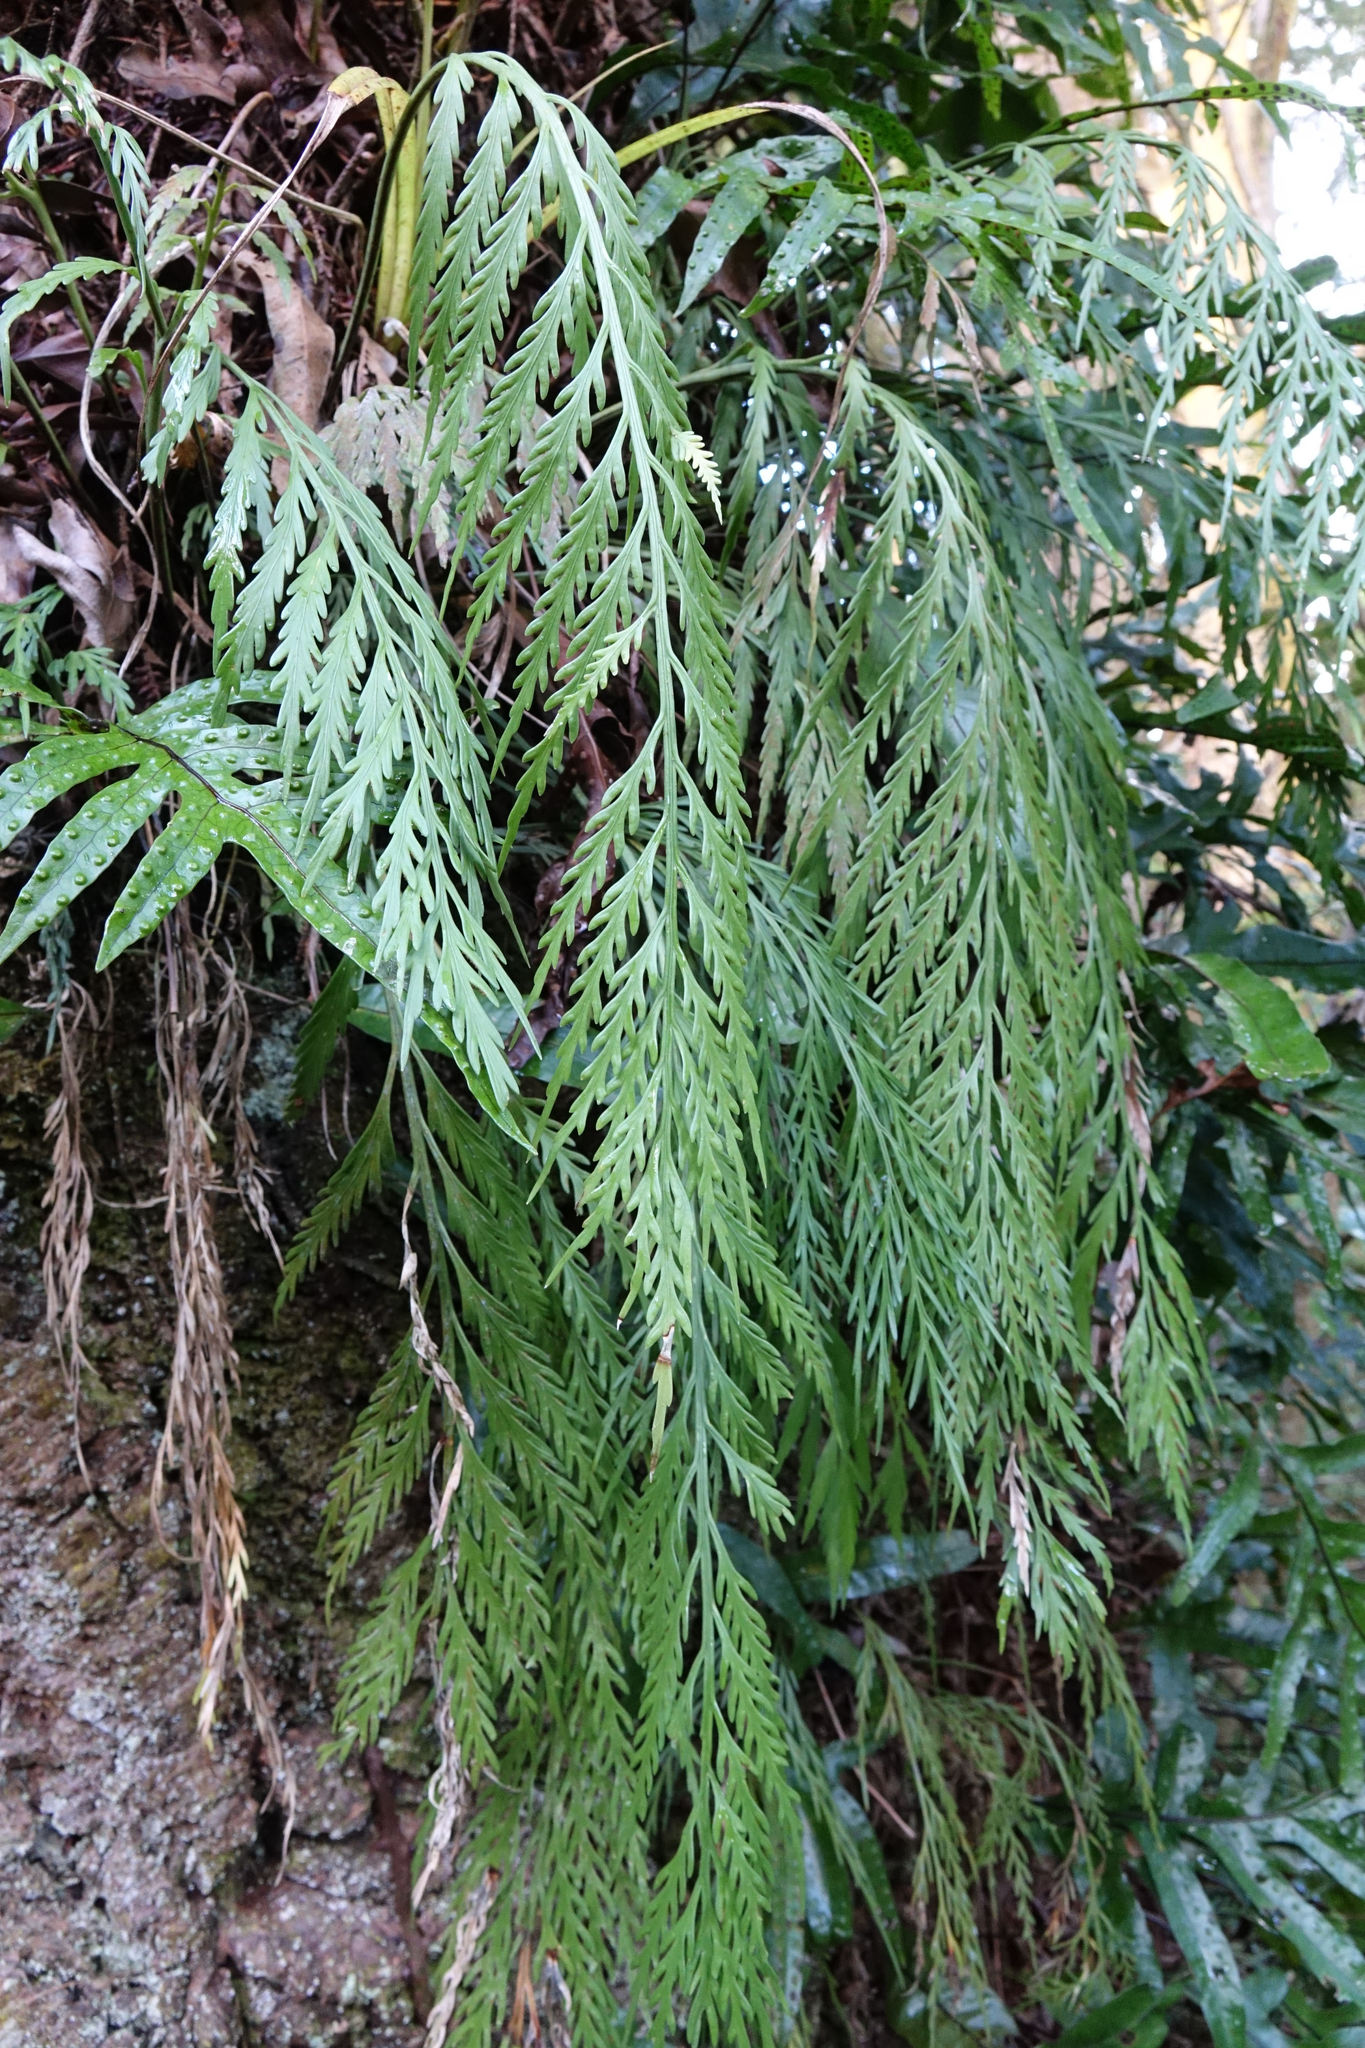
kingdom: Plantae
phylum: Tracheophyta
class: Polypodiopsida
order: Polypodiales
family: Aspleniaceae
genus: Asplenium
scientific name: Asplenium flaccidum
